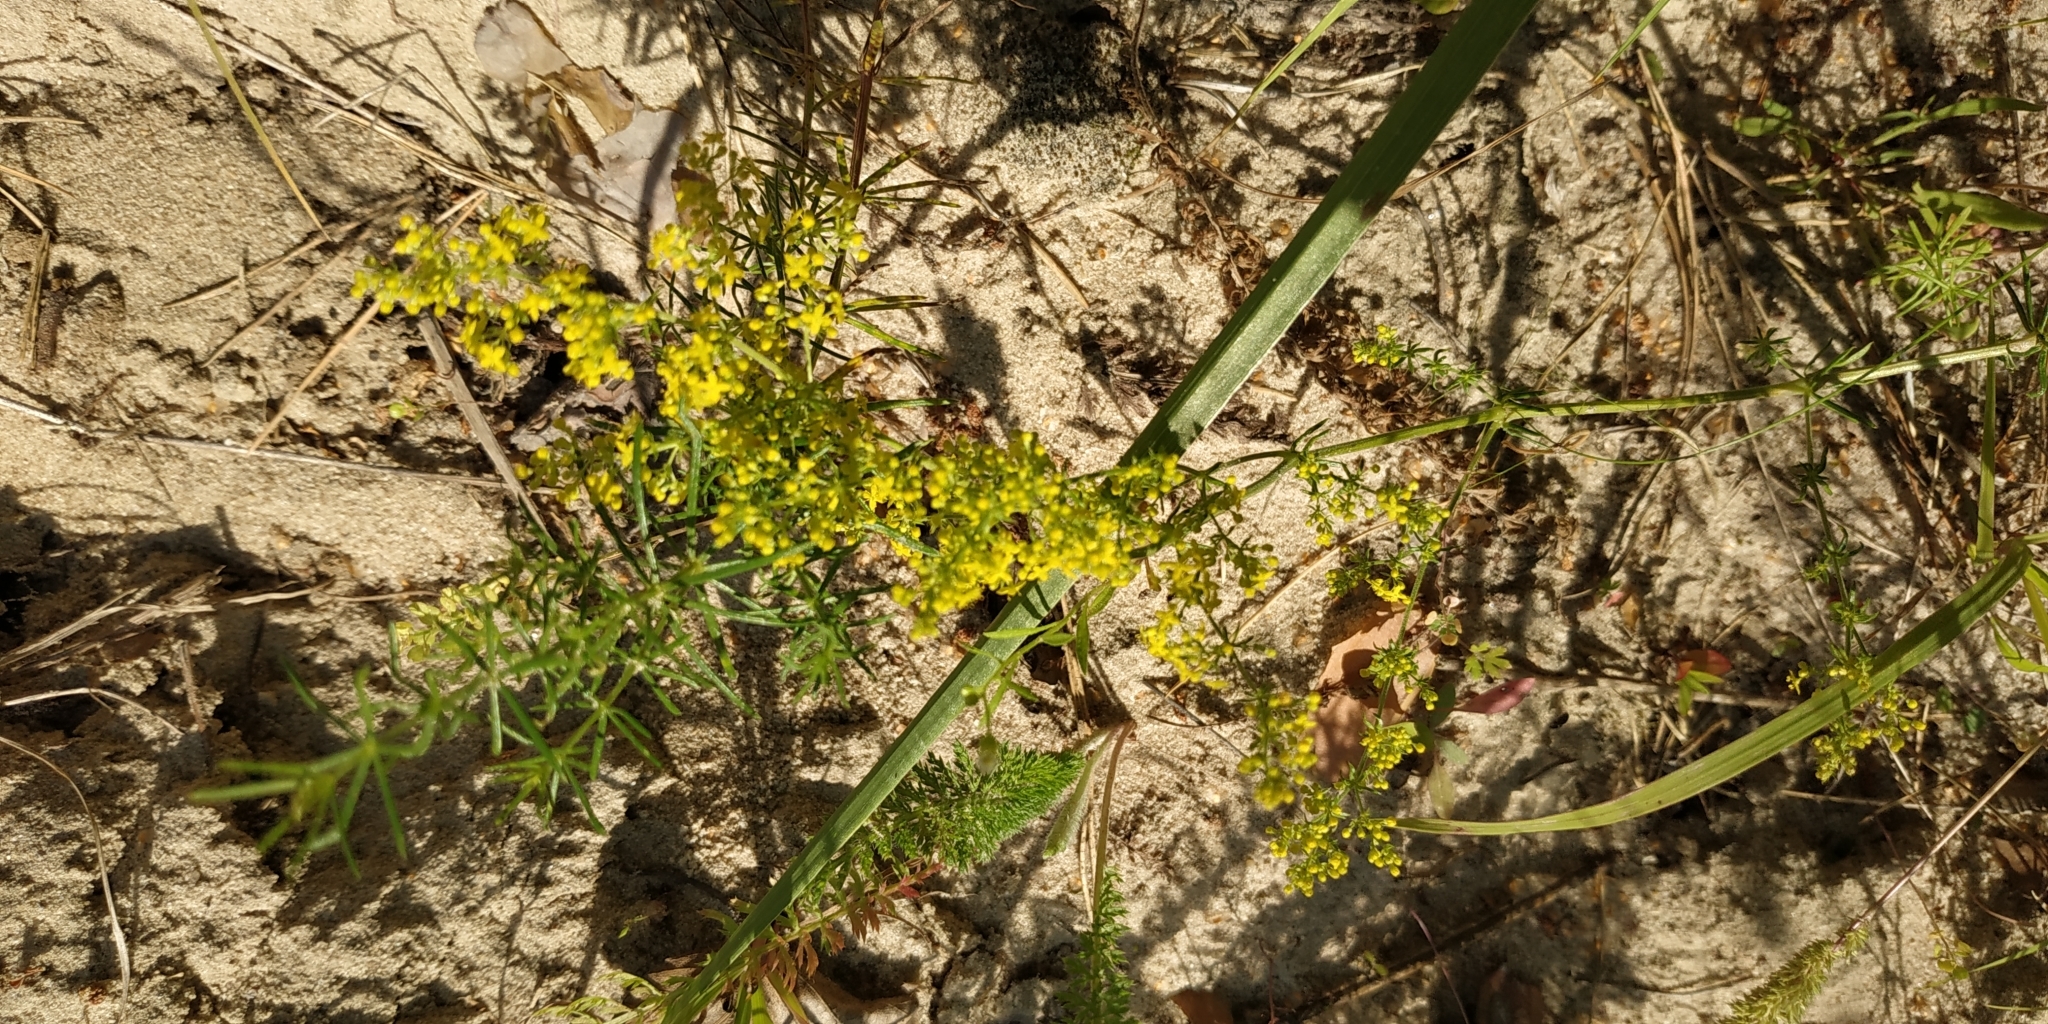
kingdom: Plantae
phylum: Tracheophyta
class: Magnoliopsida
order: Gentianales
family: Rubiaceae
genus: Galium
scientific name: Galium verum
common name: Lady's bedstraw
